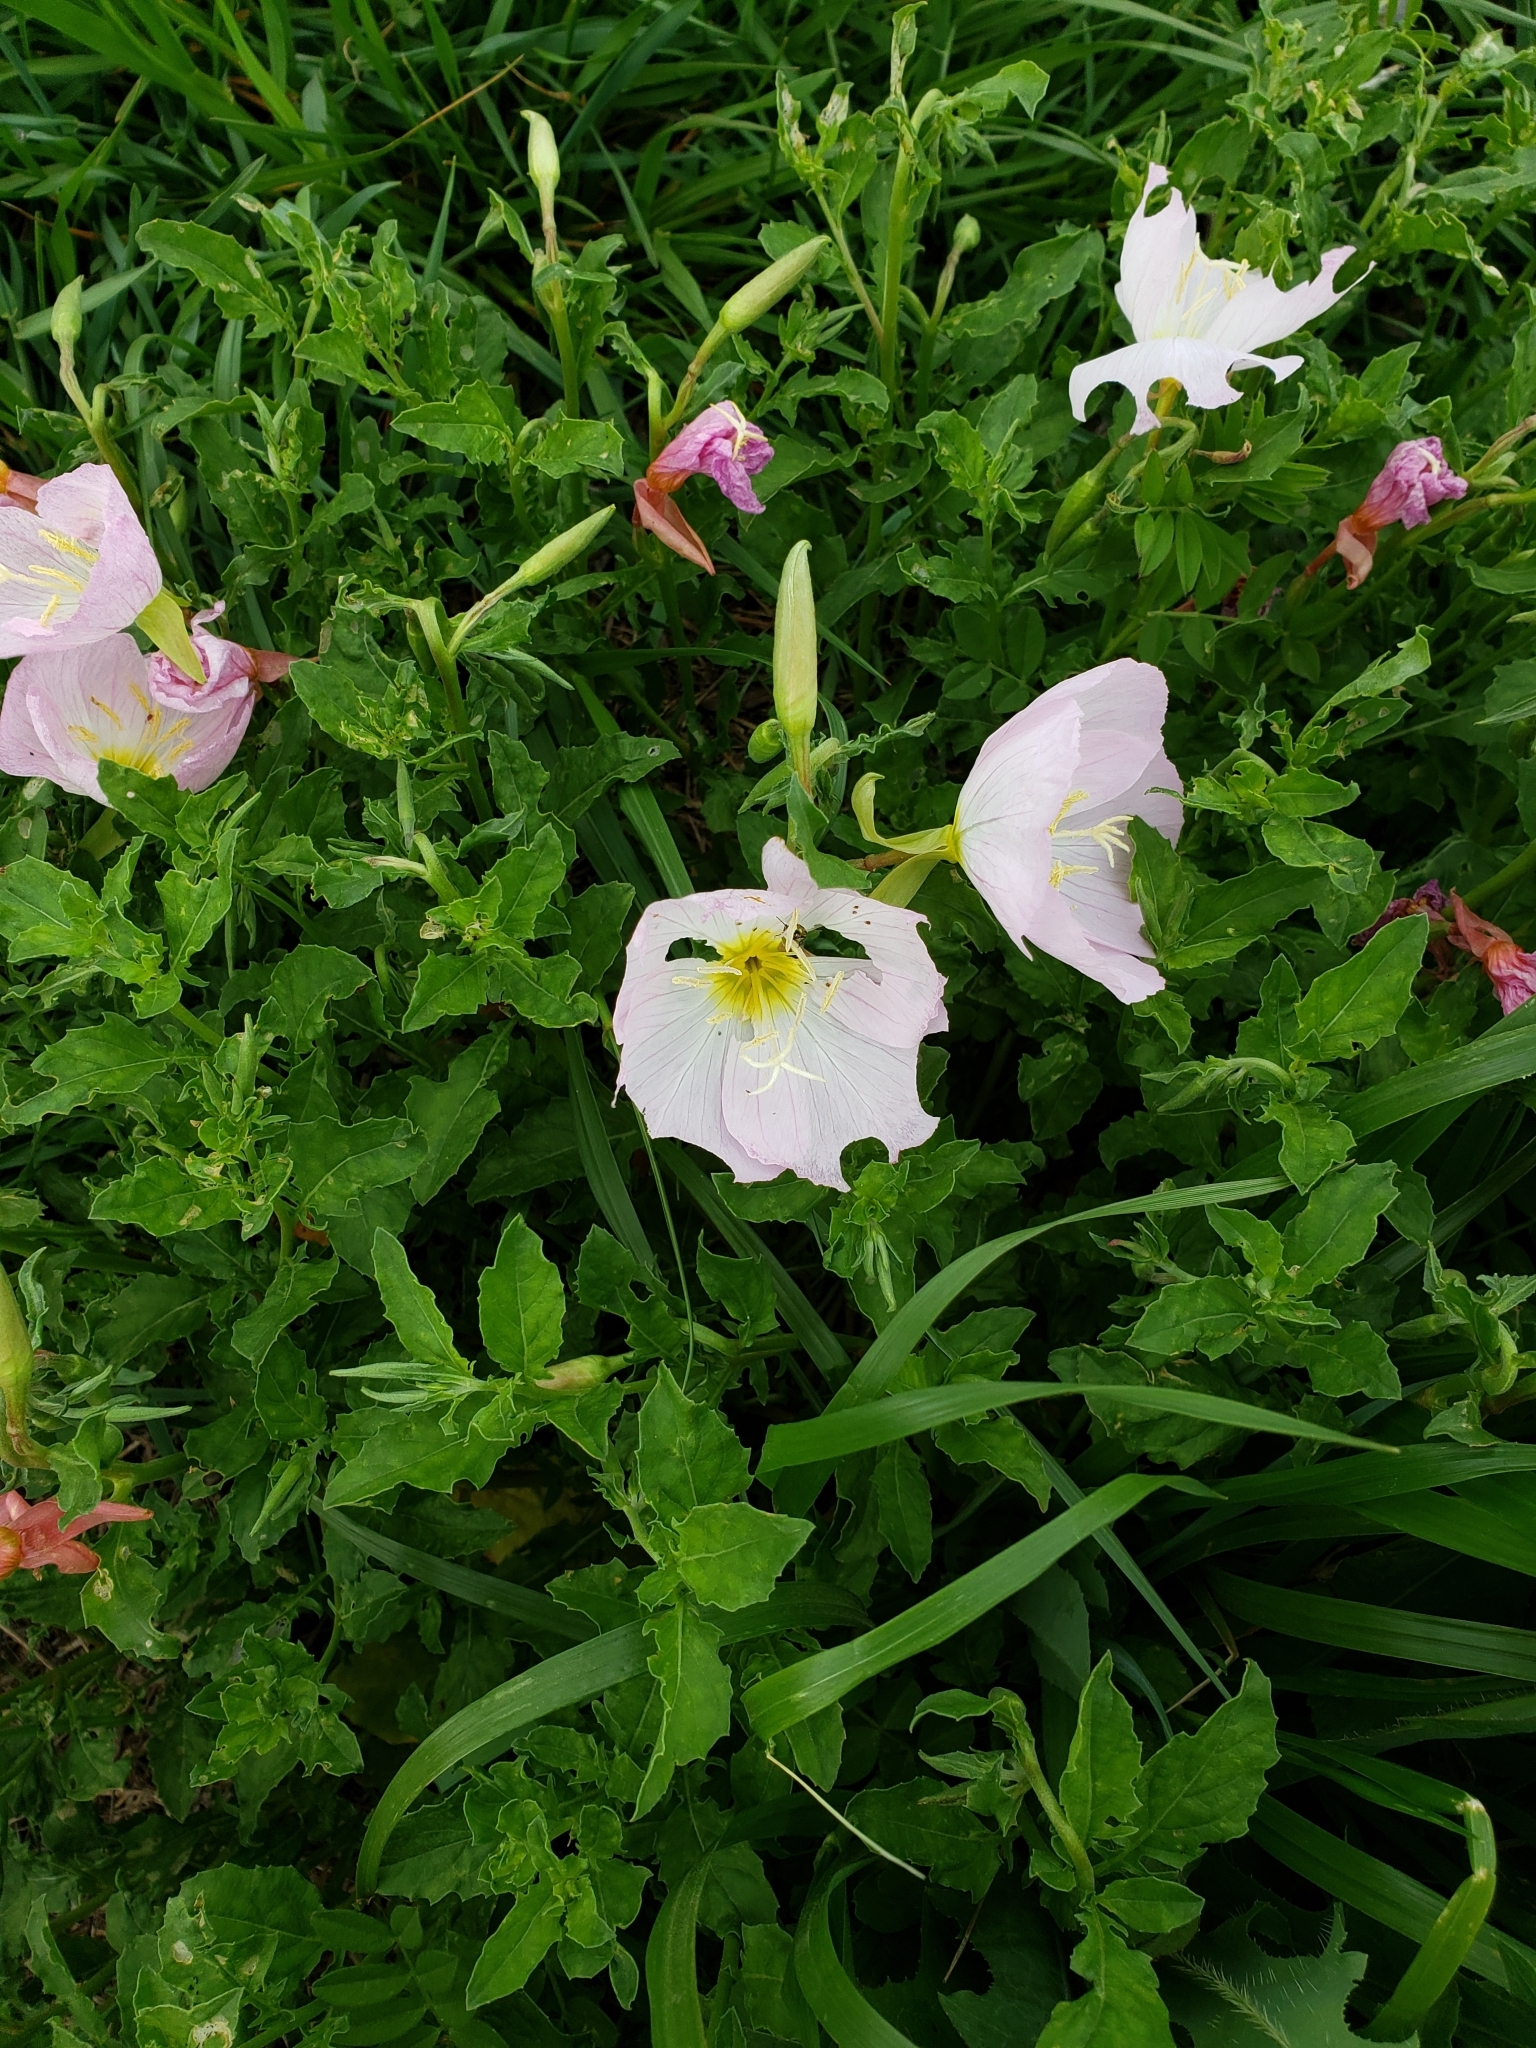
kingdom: Plantae
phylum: Tracheophyta
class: Magnoliopsida
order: Myrtales
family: Onagraceae
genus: Oenothera
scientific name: Oenothera speciosa
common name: White evening-primrose
